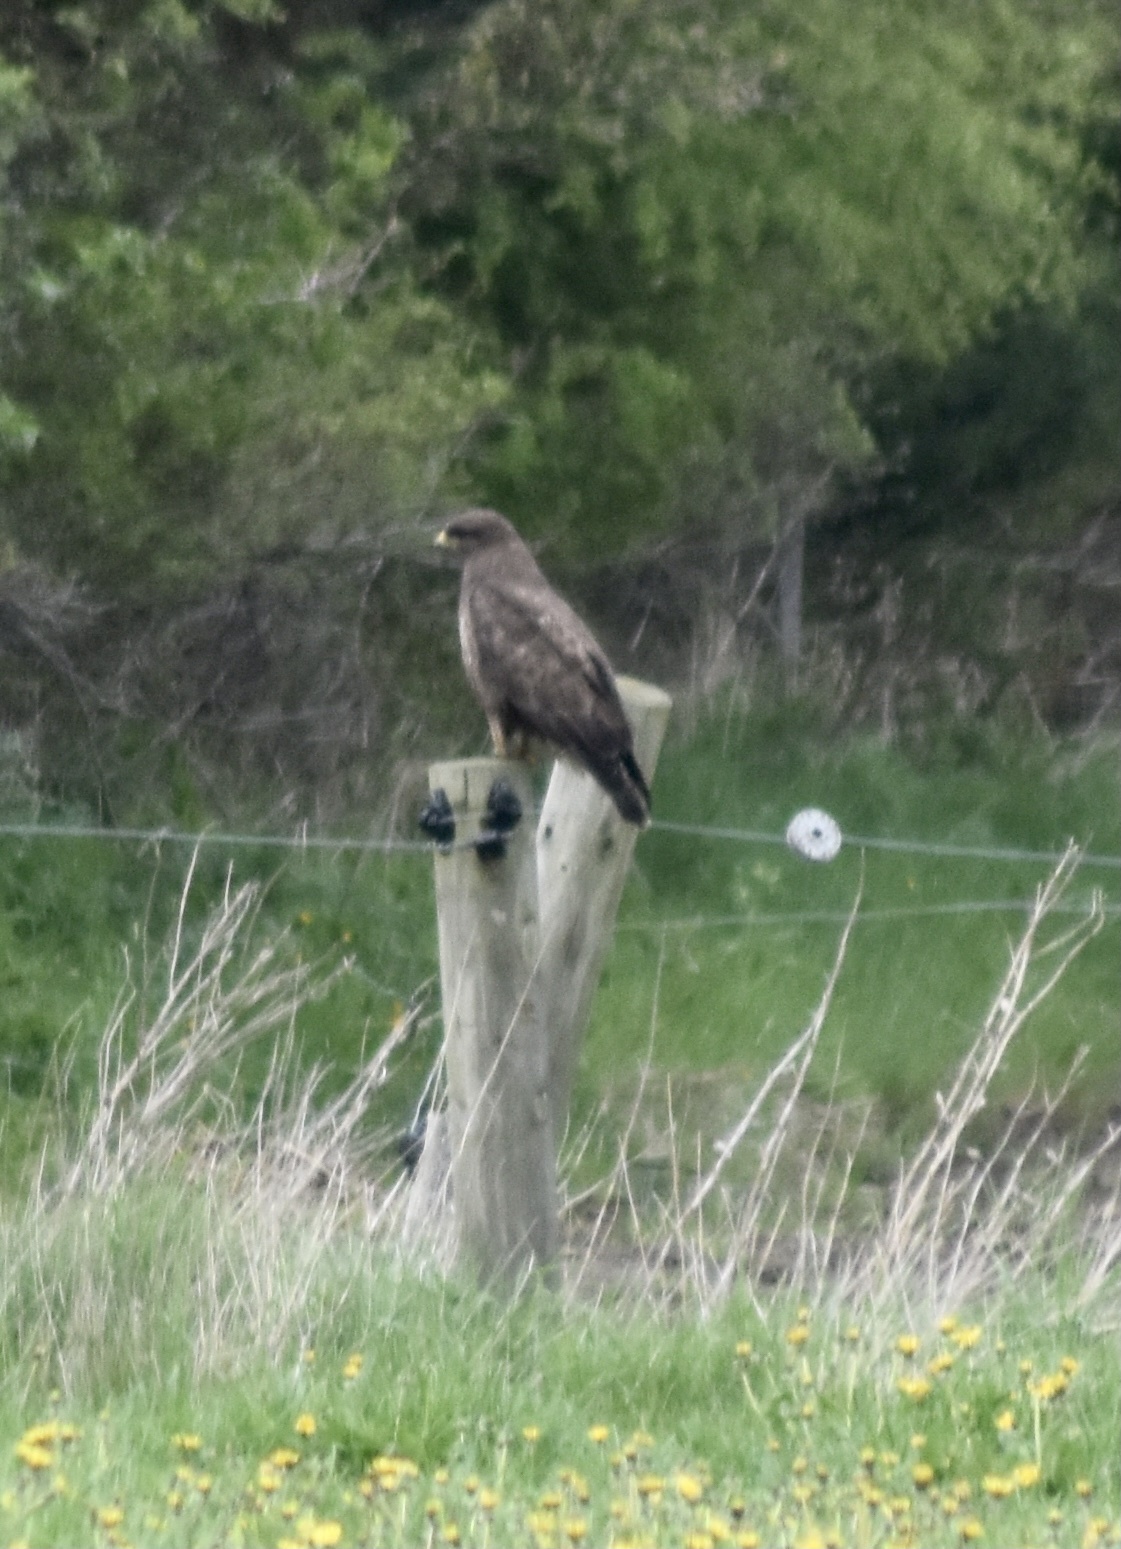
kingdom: Animalia
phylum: Chordata
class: Aves
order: Accipitriformes
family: Accipitridae
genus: Buteo
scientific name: Buteo buteo
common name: Common buzzard
